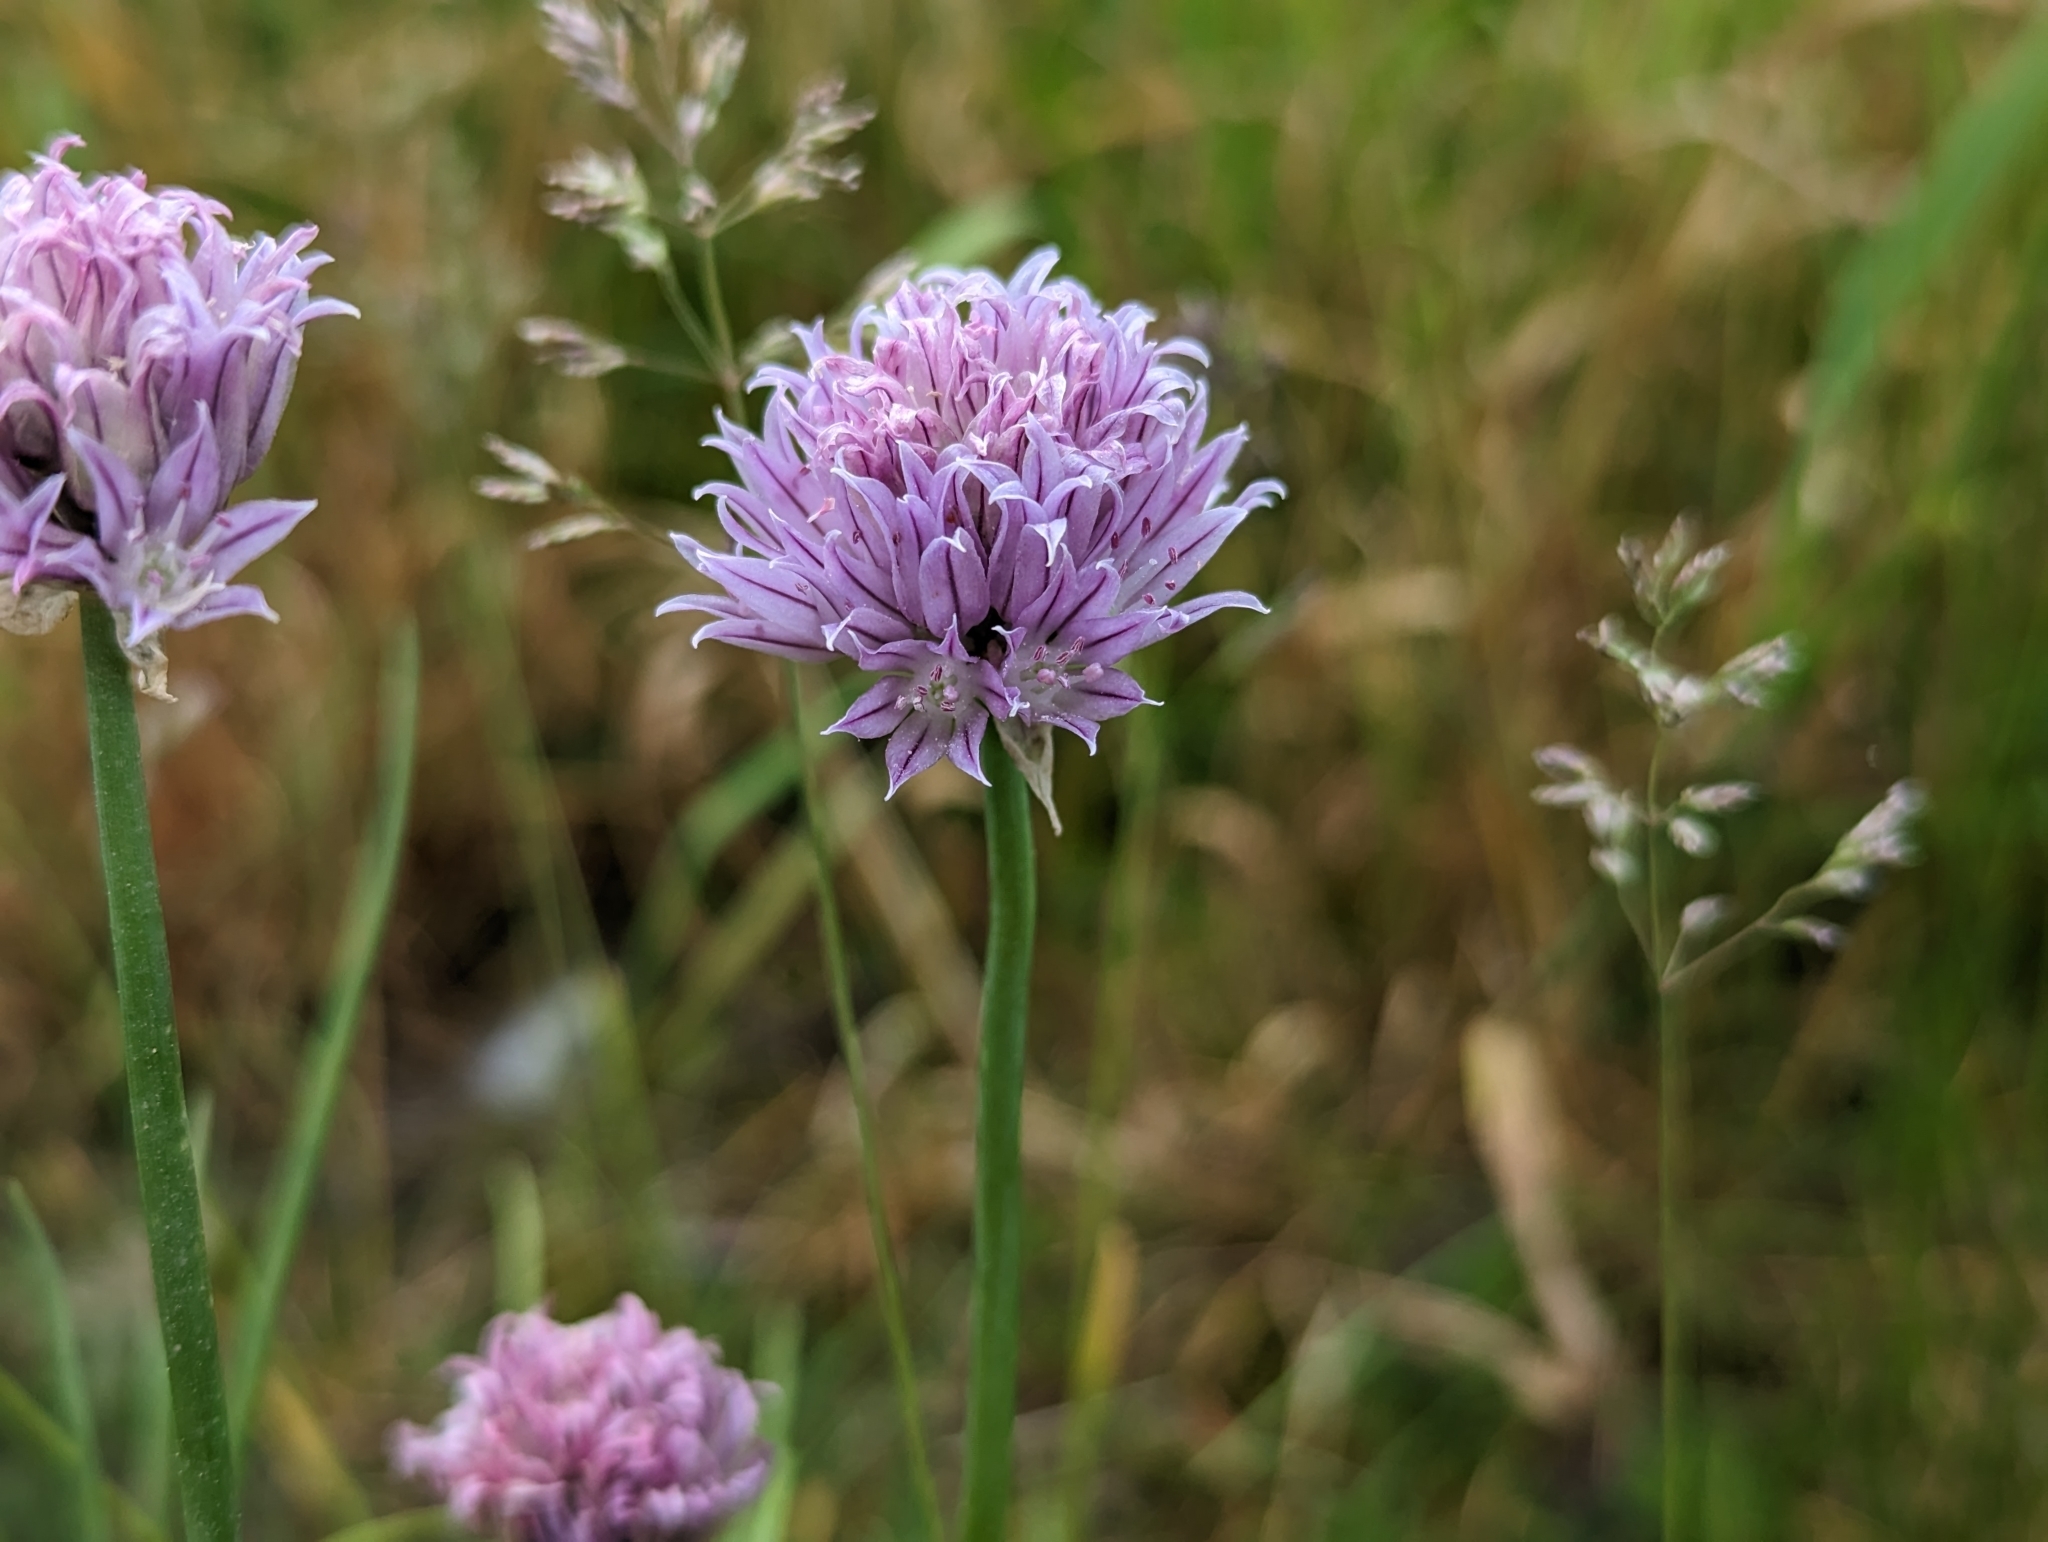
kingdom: Plantae
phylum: Tracheophyta
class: Liliopsida
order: Asparagales
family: Amaryllidaceae
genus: Allium
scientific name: Allium schoenoprasum
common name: Chives
